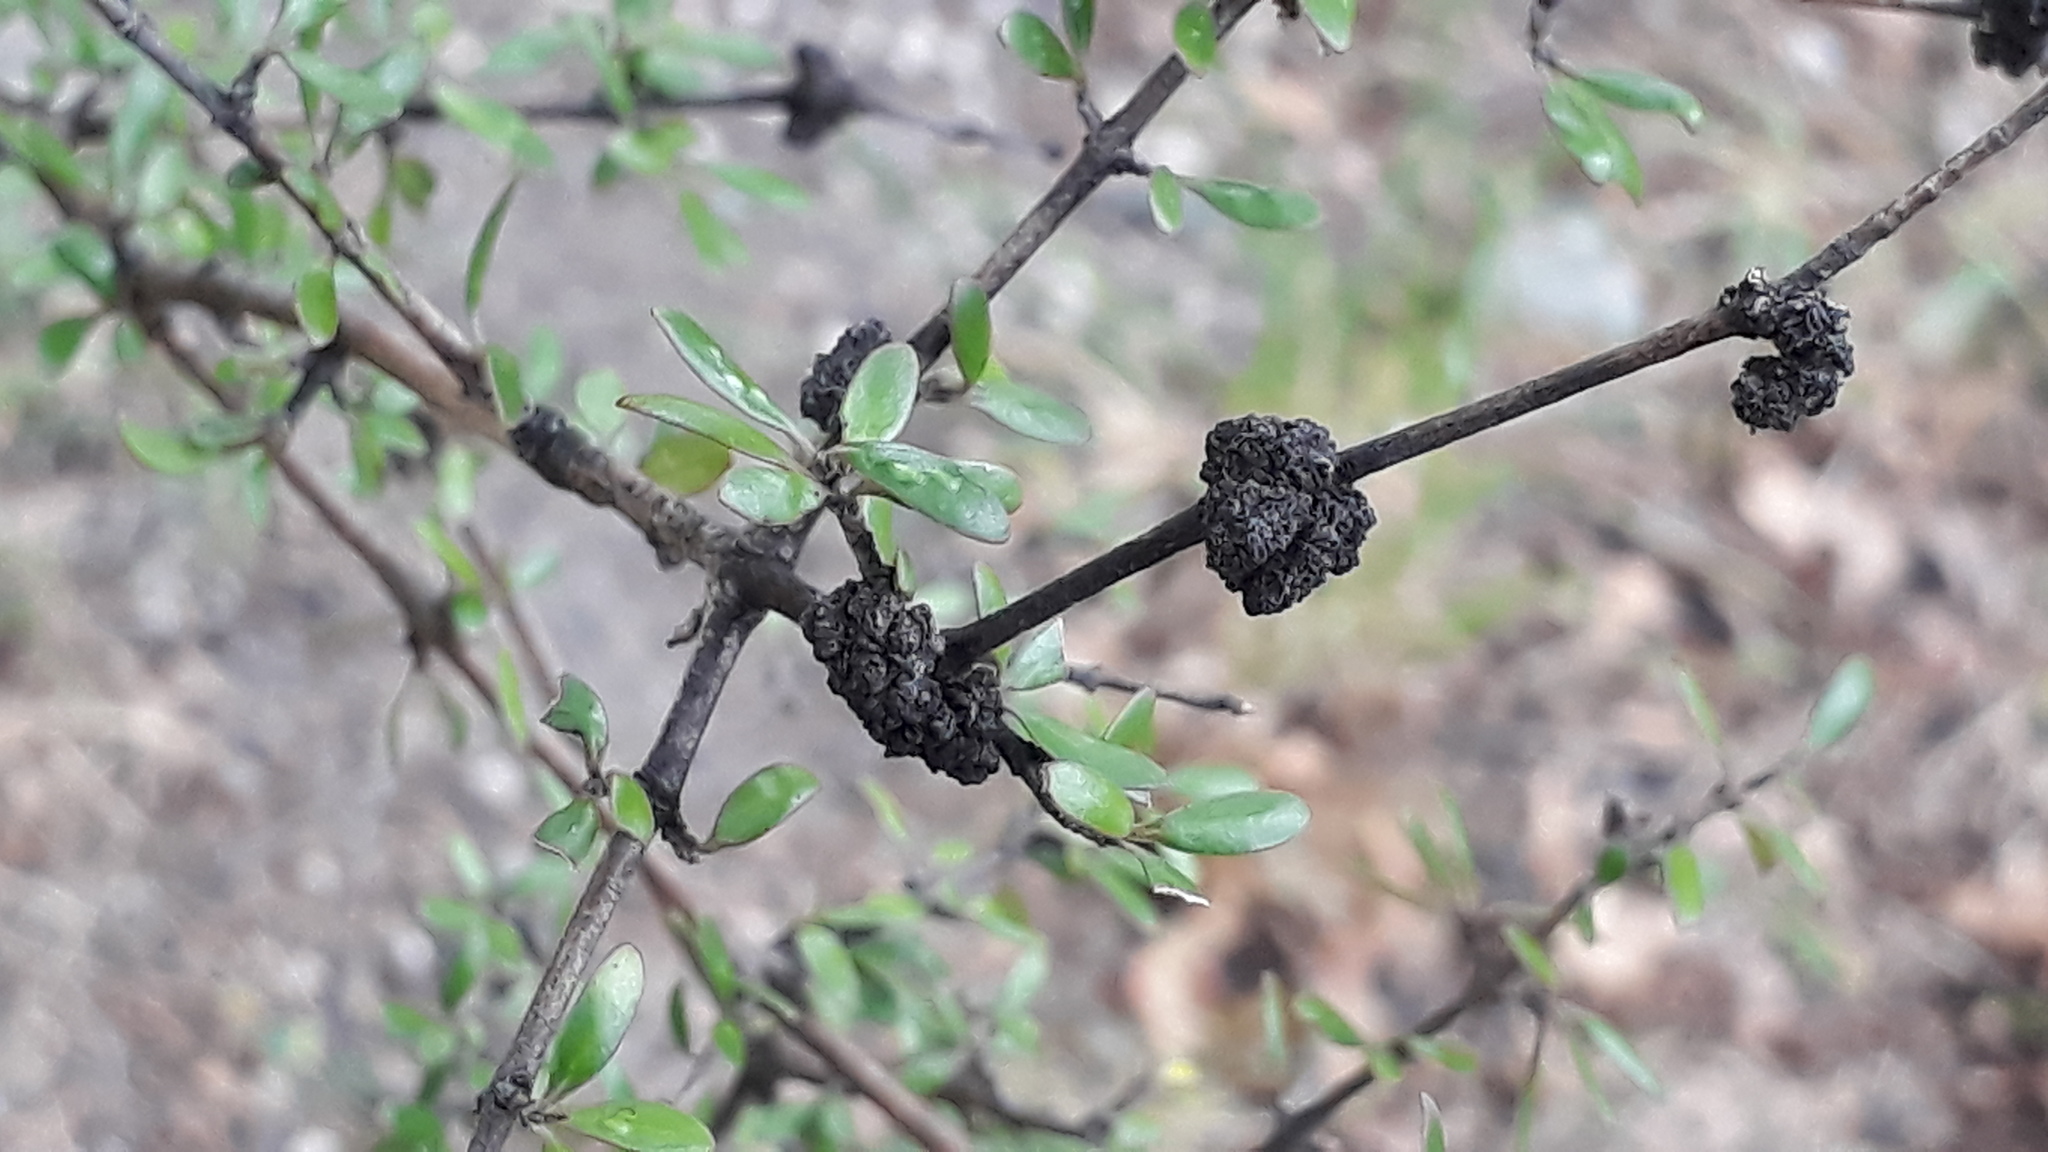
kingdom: Plantae
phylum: Tracheophyta
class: Magnoliopsida
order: Gentianales
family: Rubiaceae
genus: Coprosma
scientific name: Coprosma propinqua
